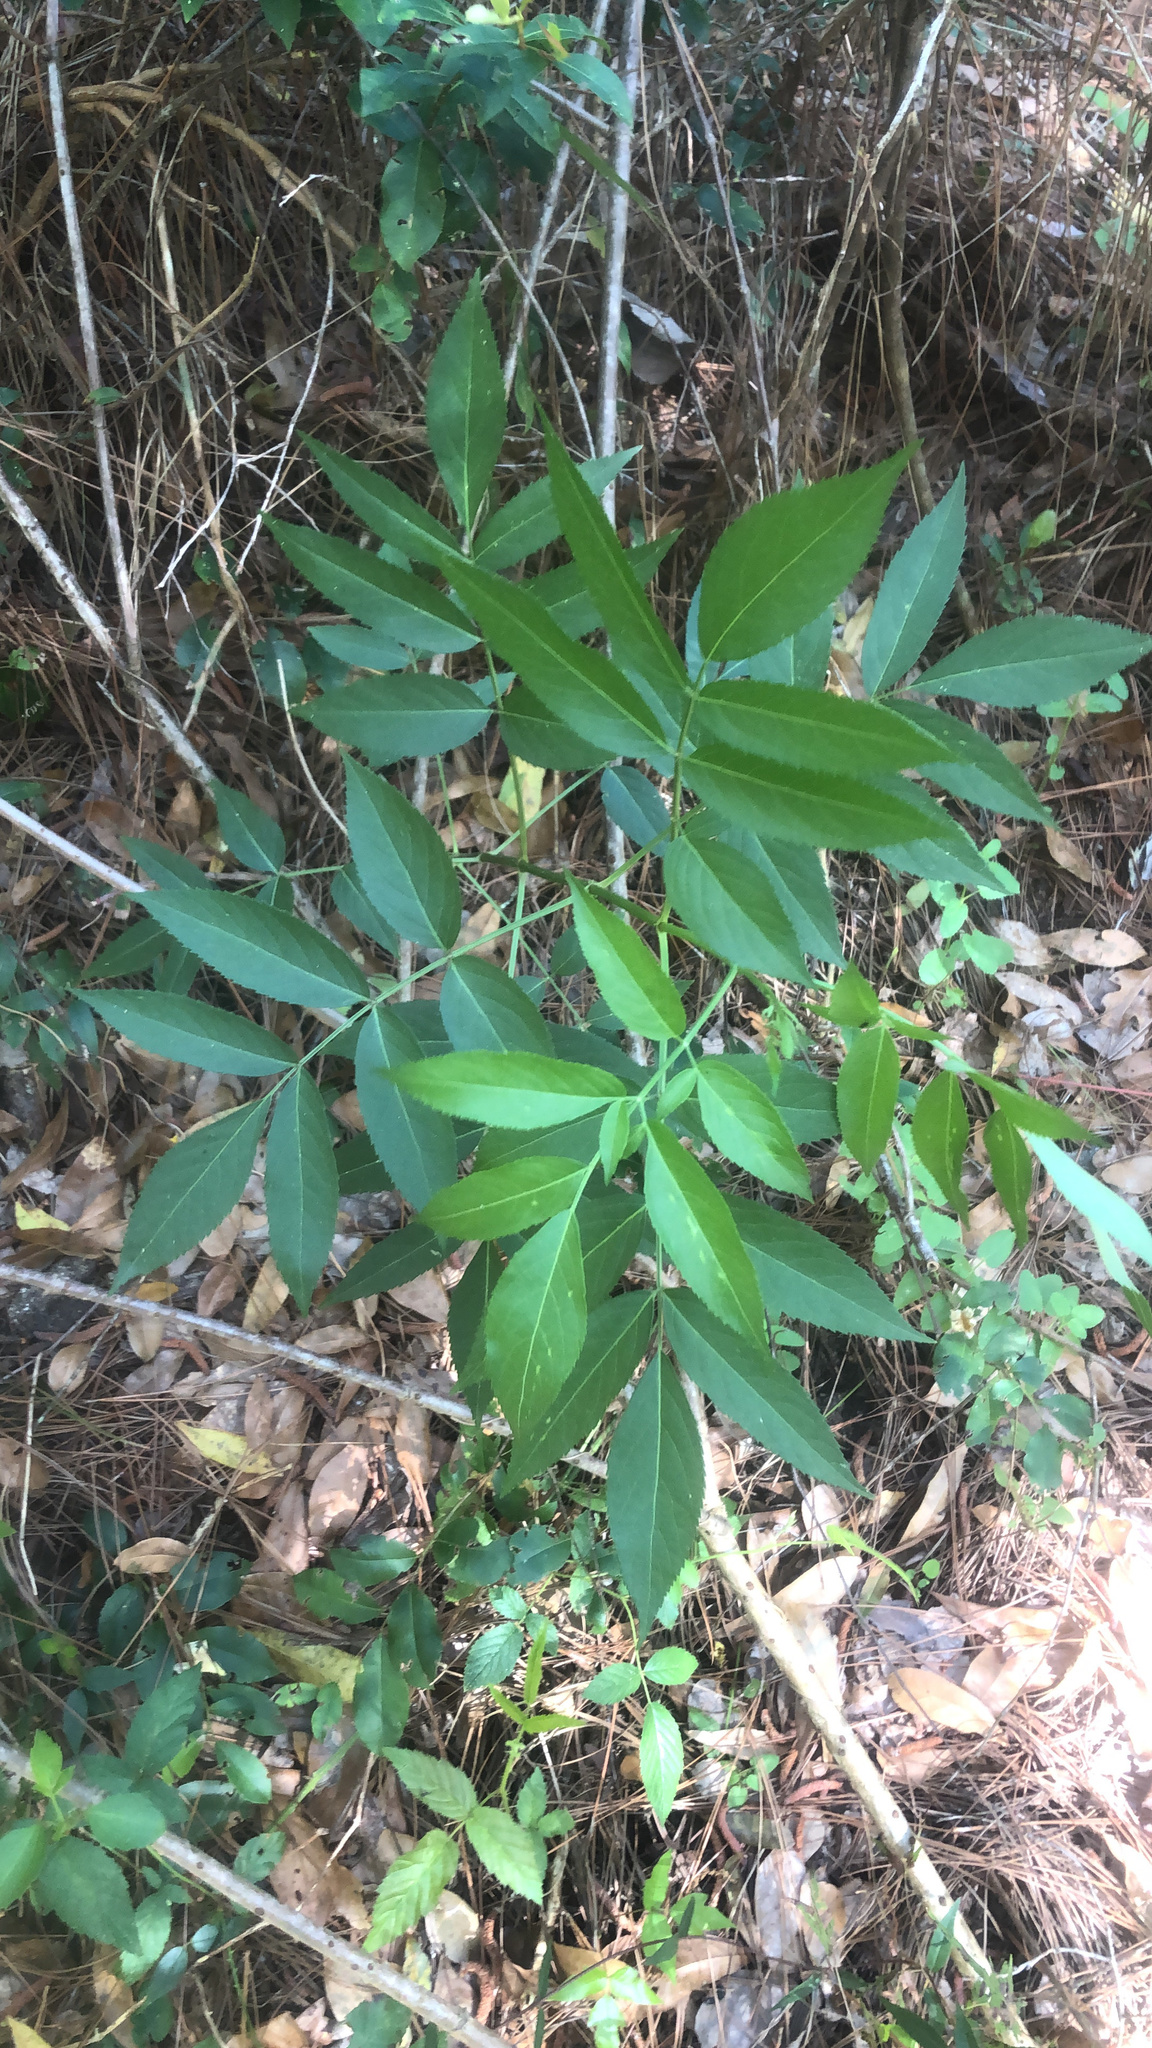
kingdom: Plantae
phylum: Tracheophyta
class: Magnoliopsida
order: Dipsacales
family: Viburnaceae
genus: Sambucus
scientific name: Sambucus canadensis
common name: American elder
